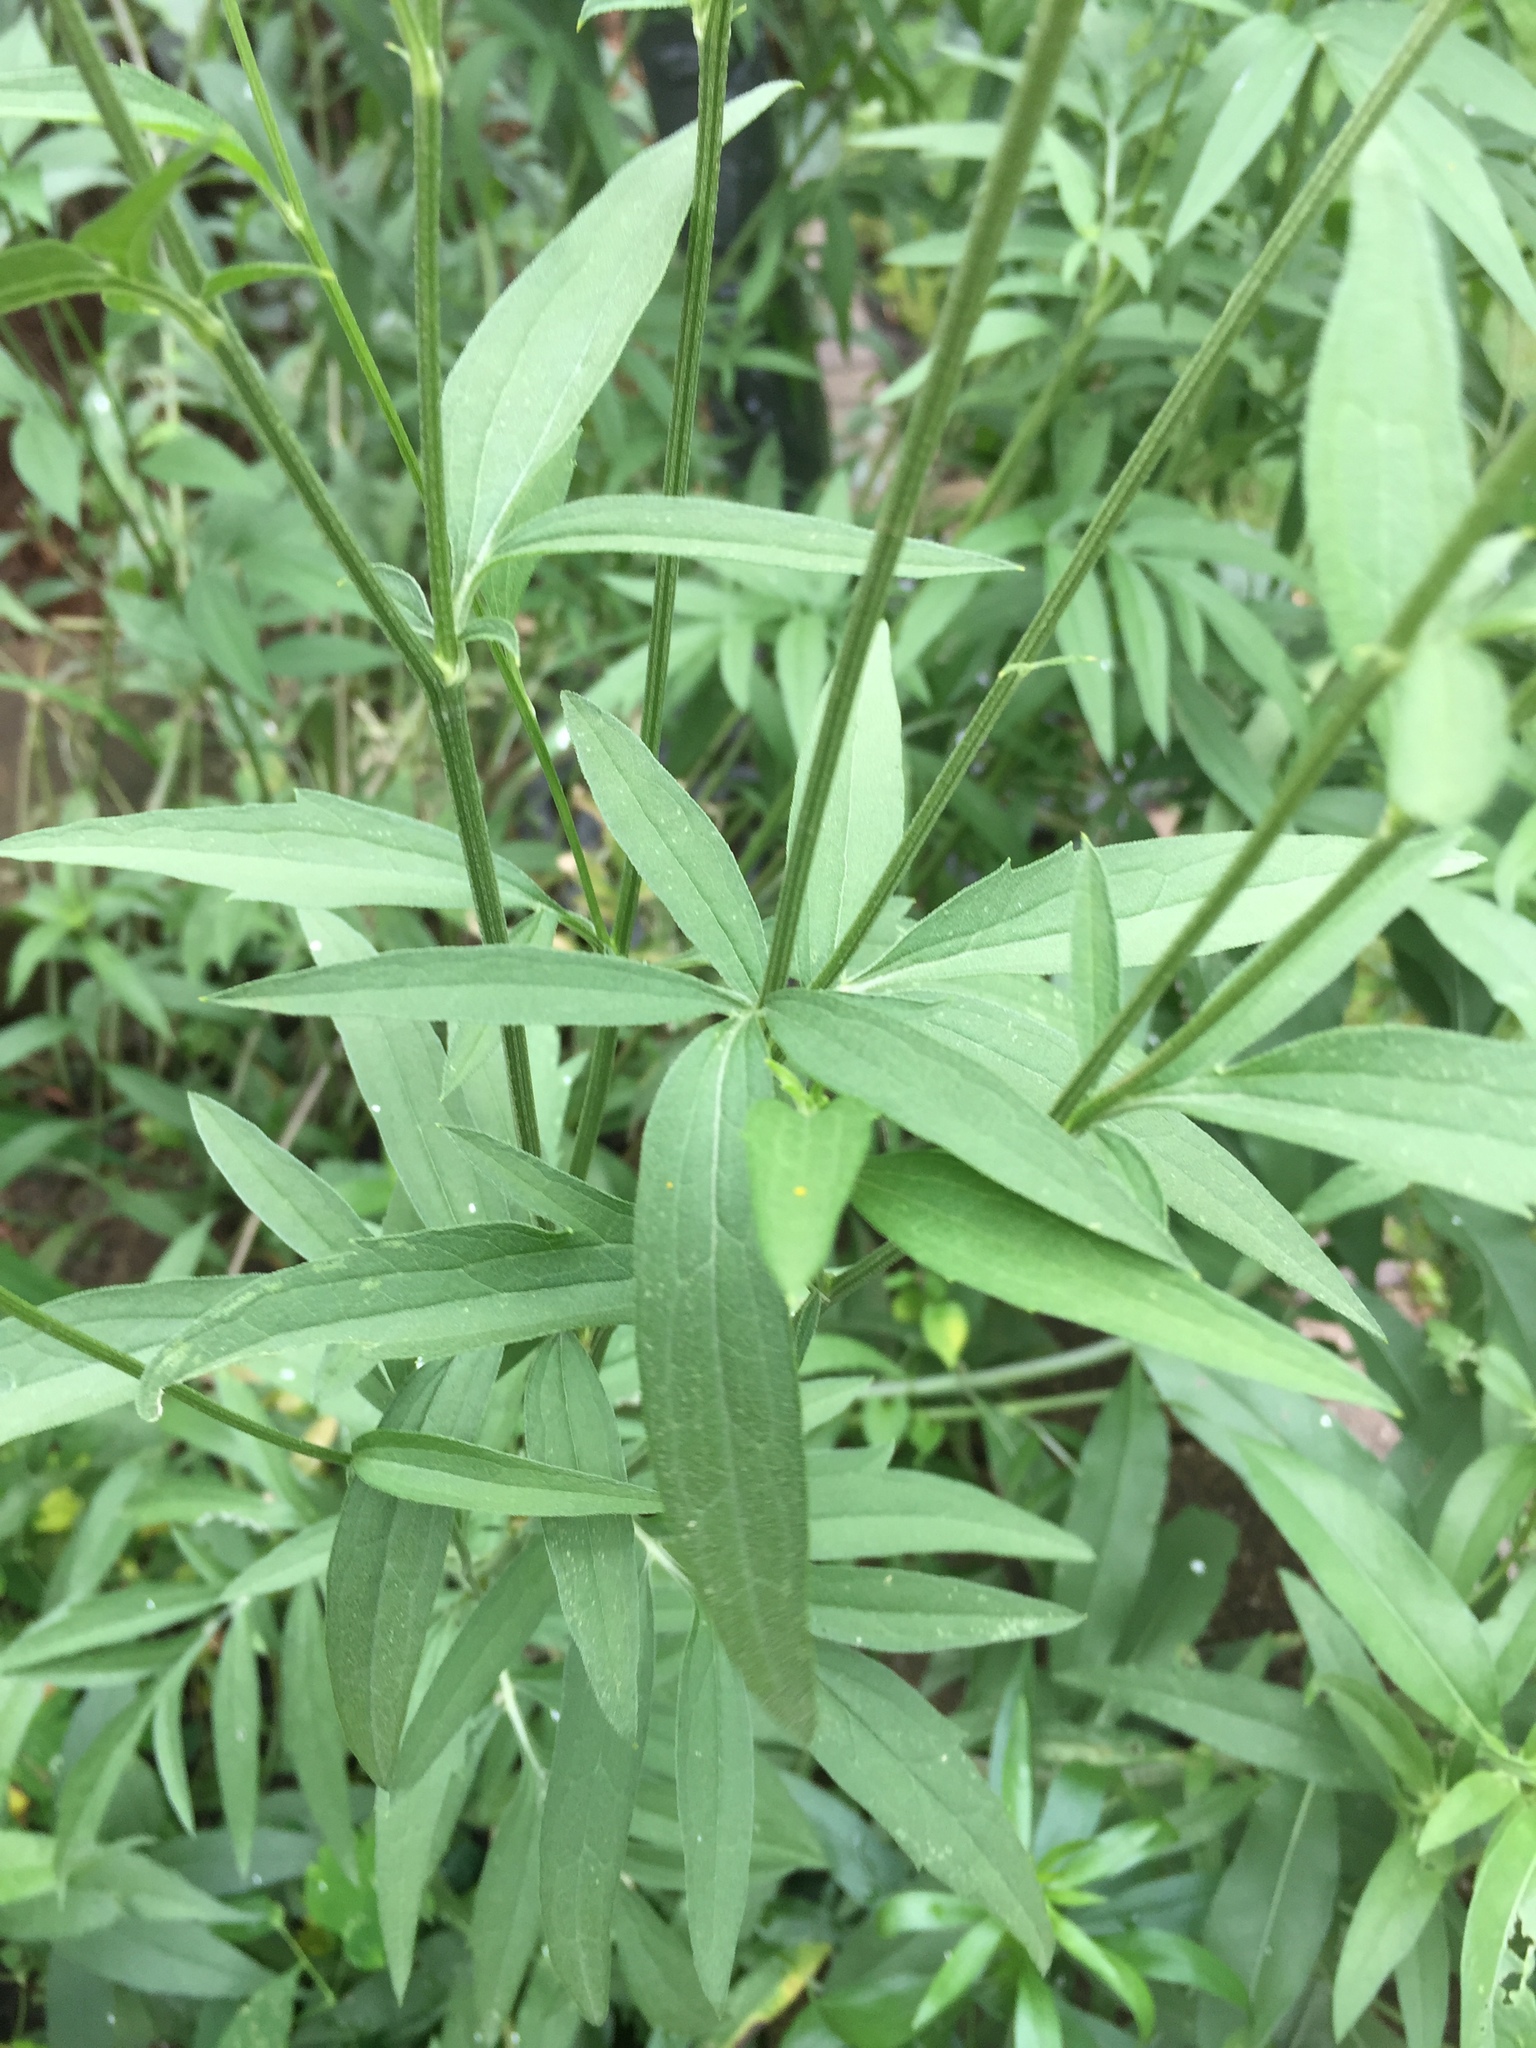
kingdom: Plantae
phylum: Tracheophyta
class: Magnoliopsida
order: Asterales
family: Asteraceae
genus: Ratibida
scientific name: Ratibida pinnata
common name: Drooping prairie-coneflower
